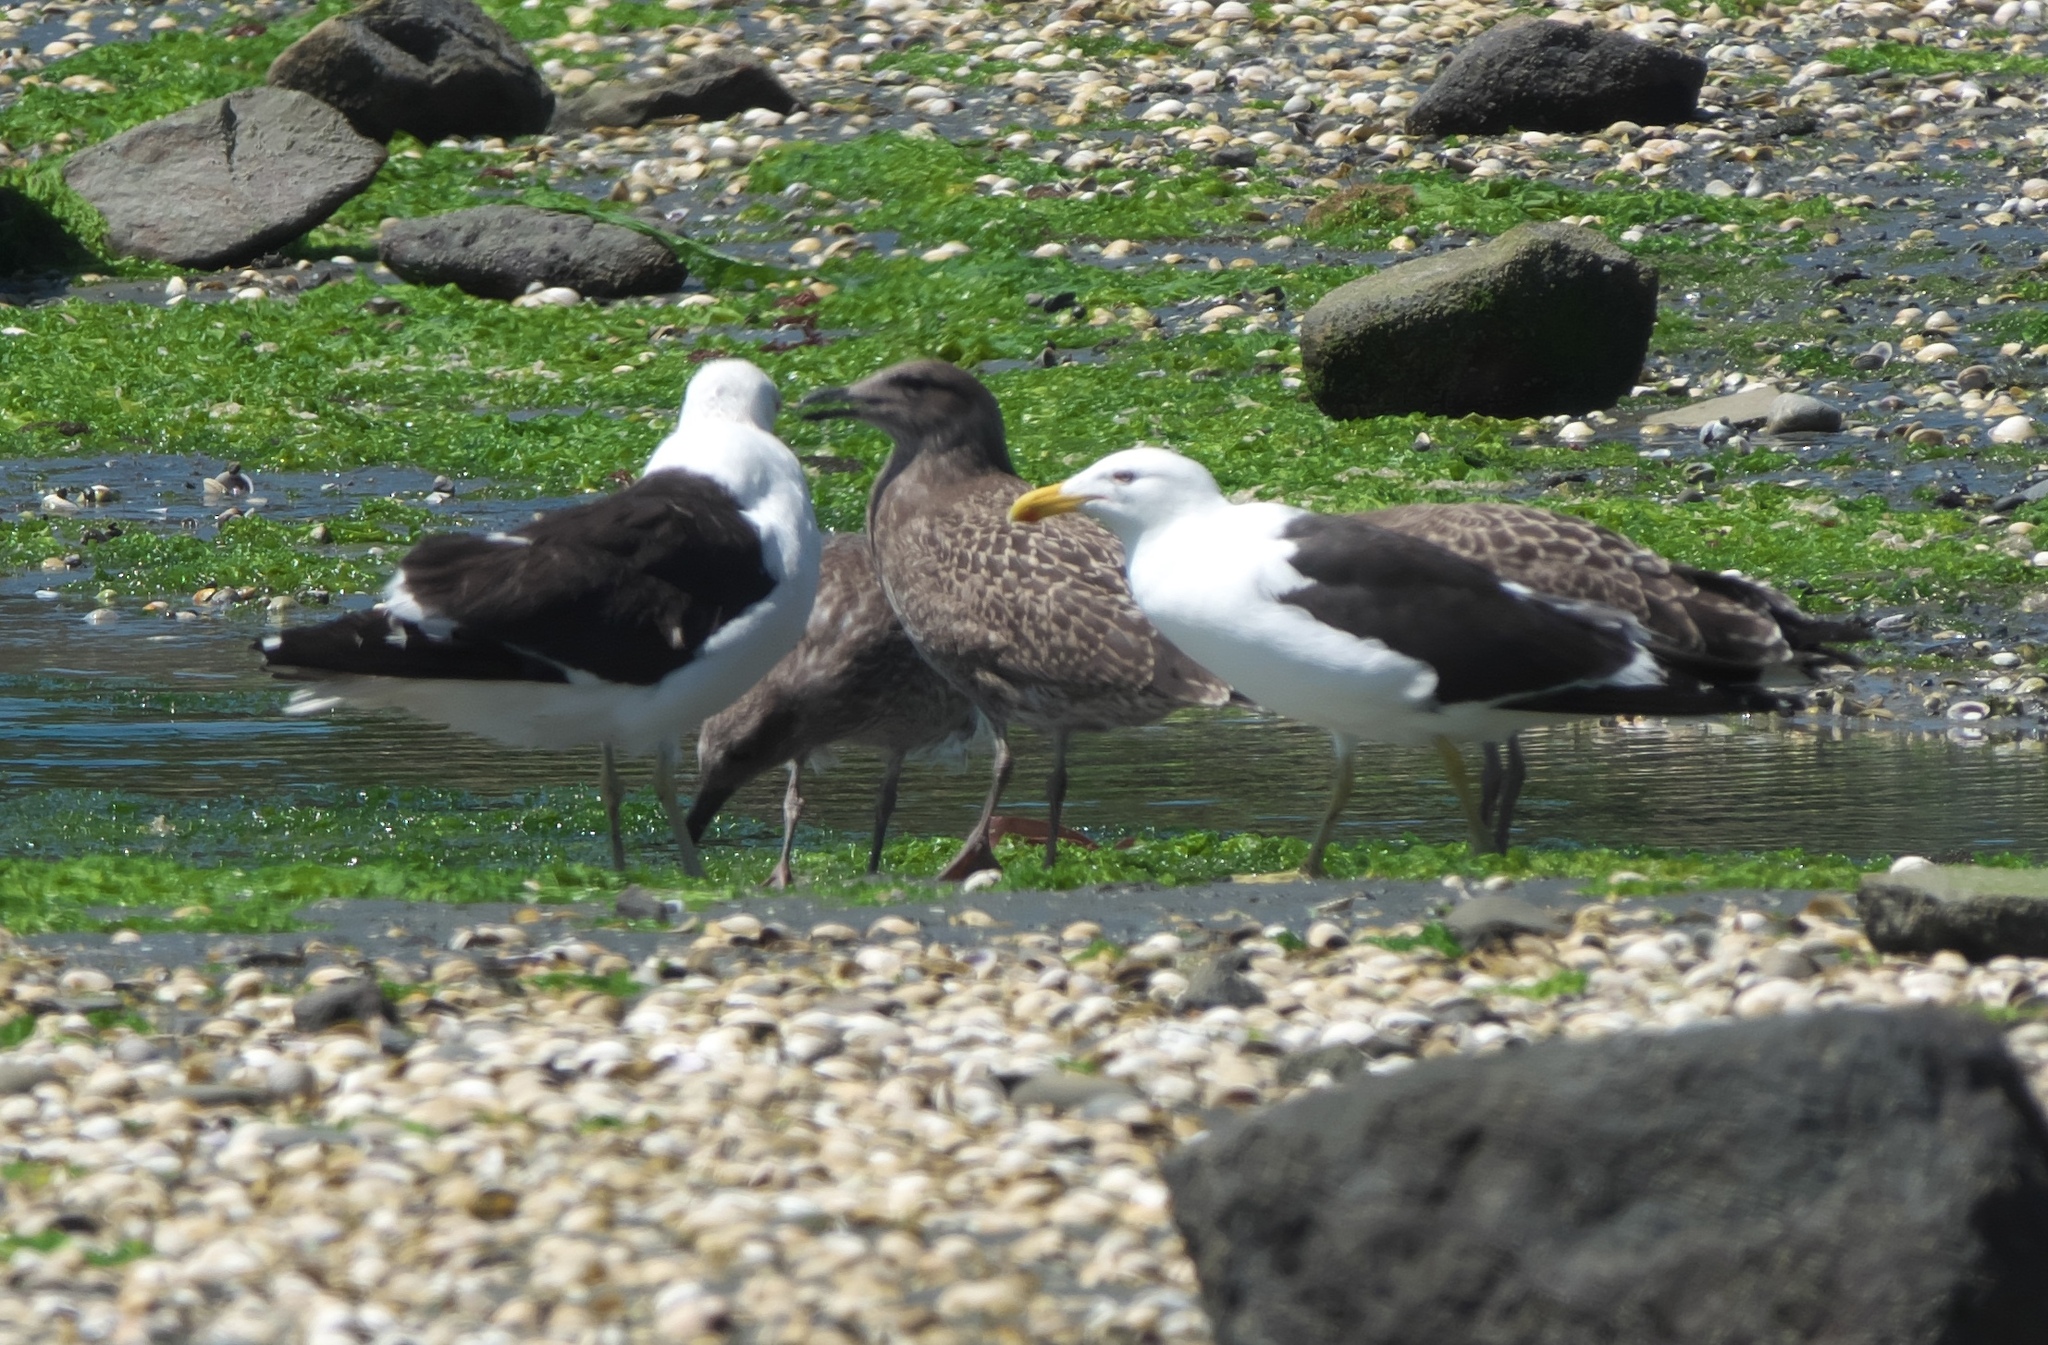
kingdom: Animalia
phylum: Chordata
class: Aves
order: Charadriiformes
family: Laridae
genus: Larus
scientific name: Larus dominicanus
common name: Kelp gull
